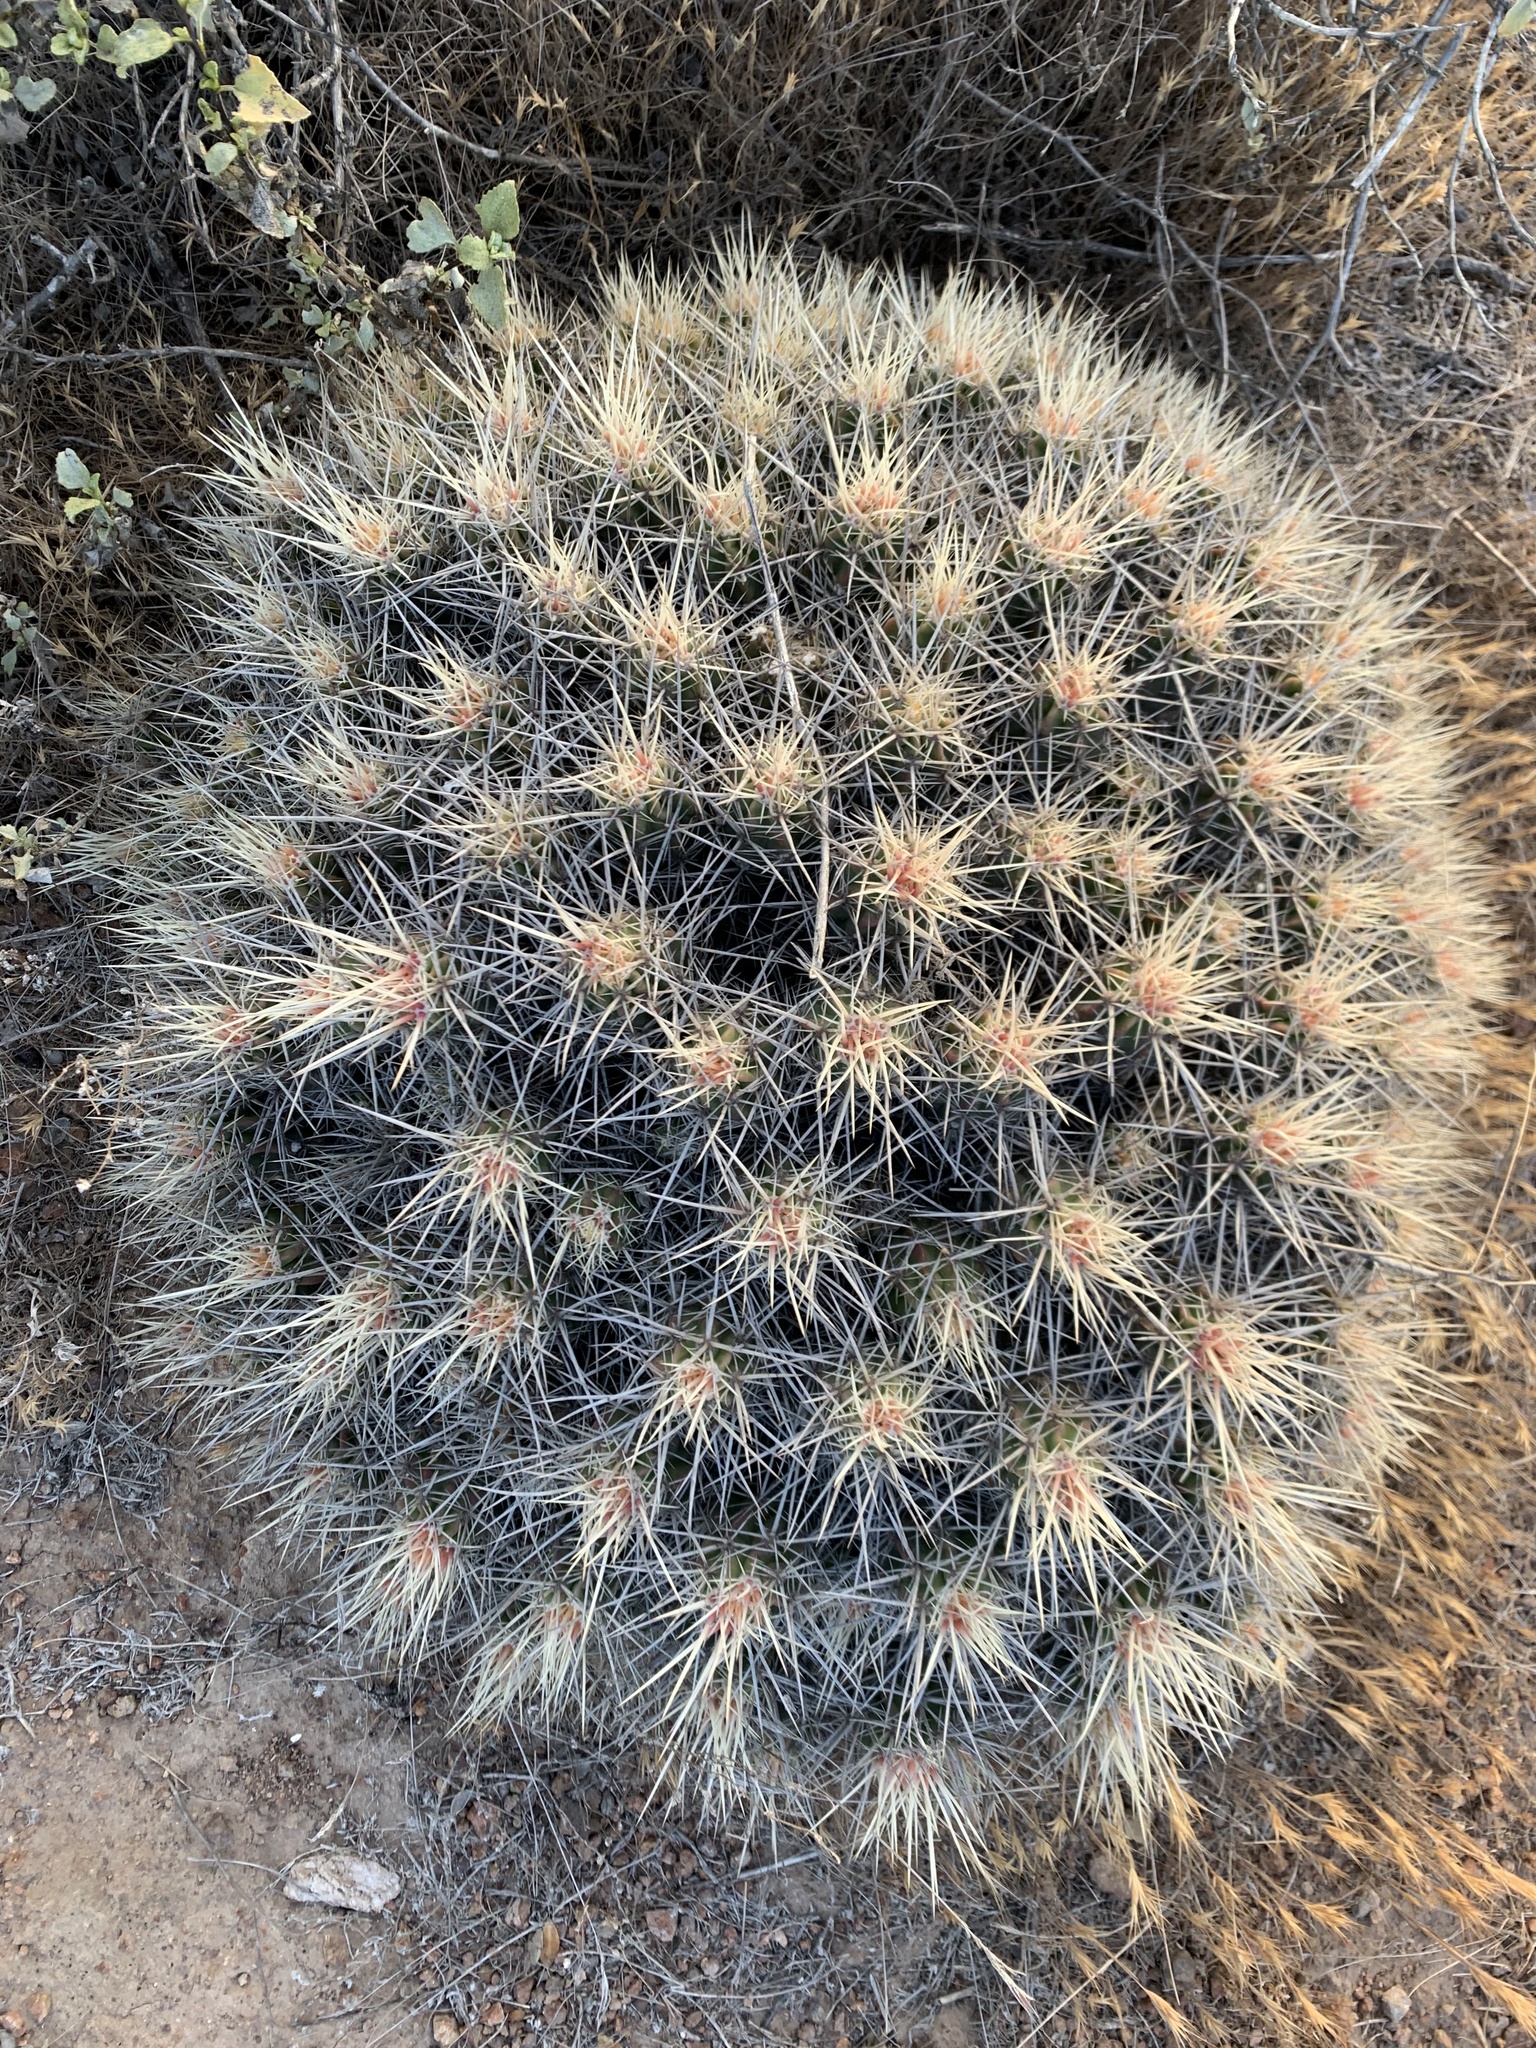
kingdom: Plantae
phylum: Tracheophyta
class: Magnoliopsida
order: Caryophyllales
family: Cactaceae
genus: Echinocereus
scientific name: Echinocereus maritimus
